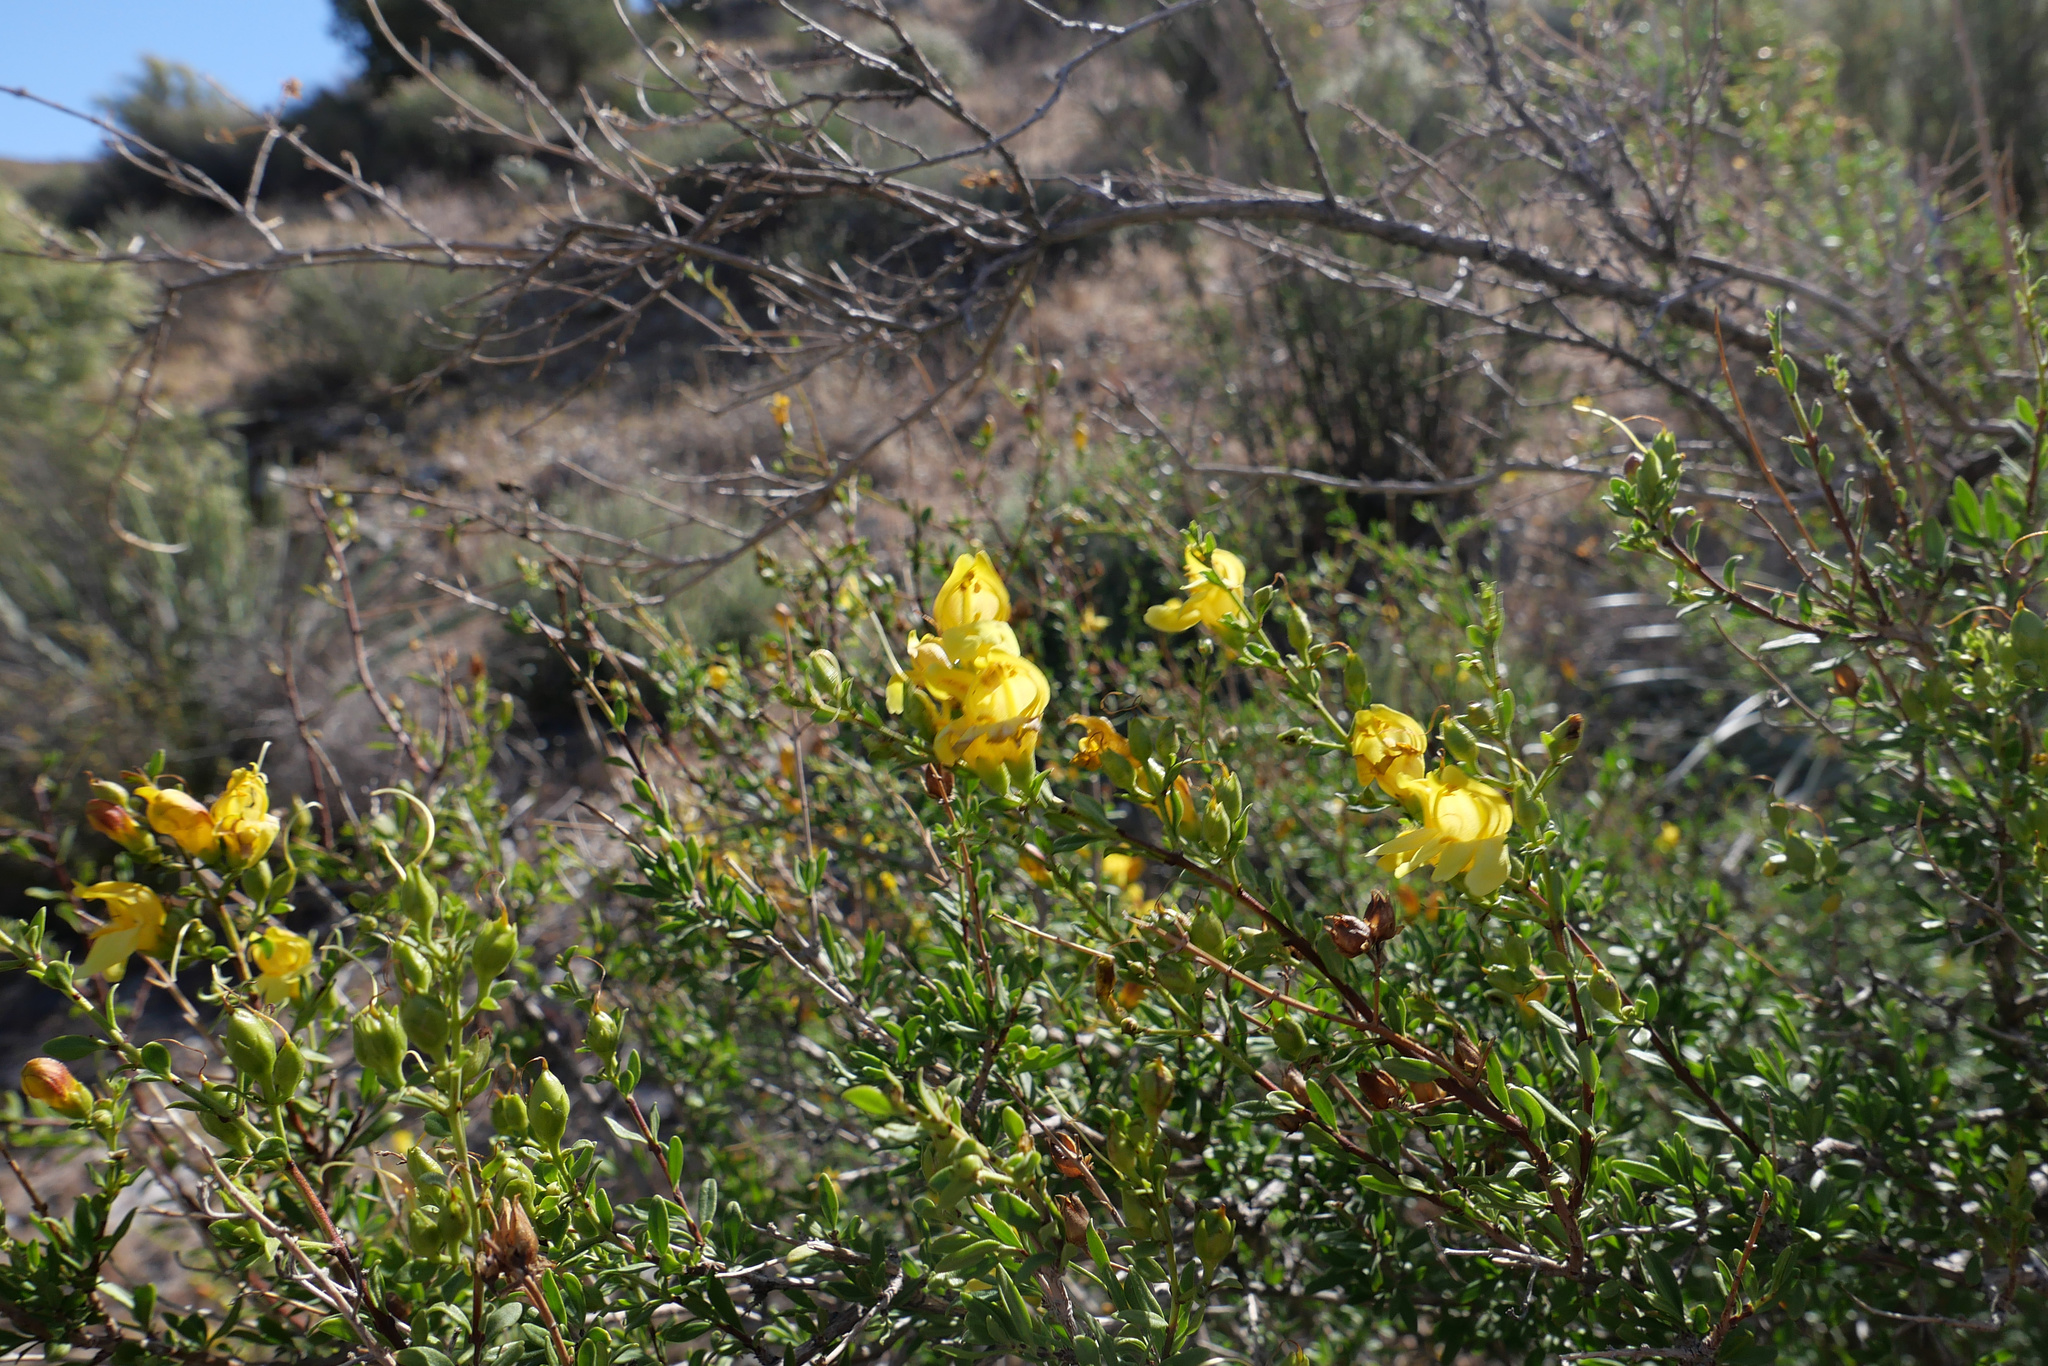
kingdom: Plantae
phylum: Tracheophyta
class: Magnoliopsida
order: Lamiales
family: Plantaginaceae
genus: Keckiella
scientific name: Keckiella antirrhinoides
